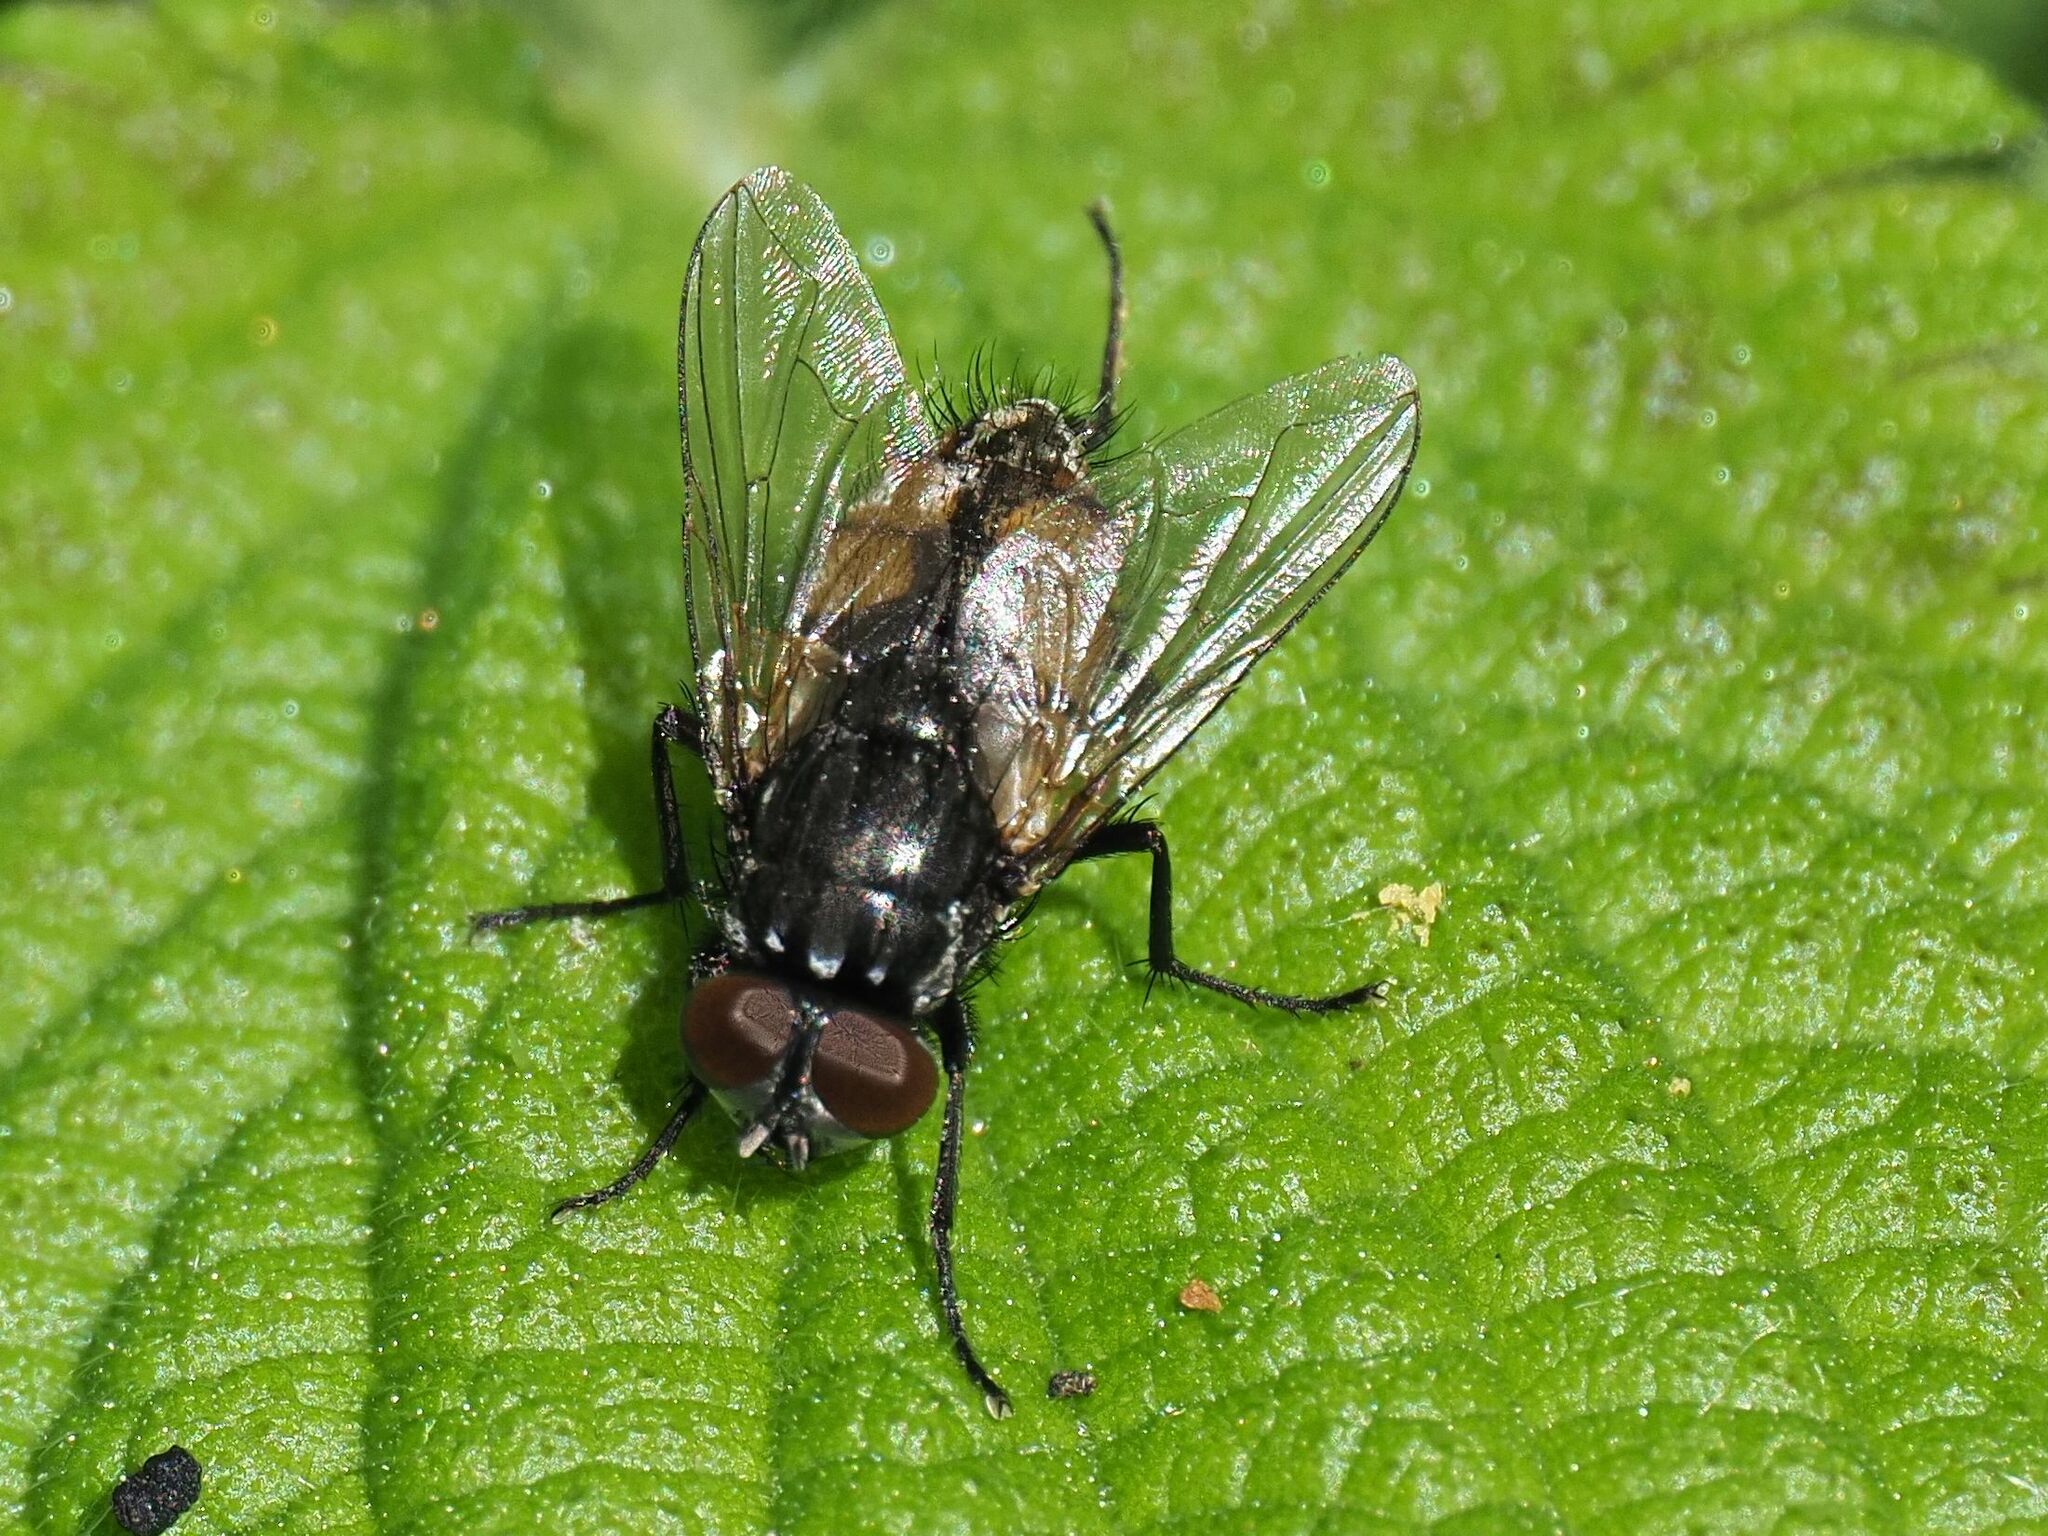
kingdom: Animalia
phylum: Arthropoda
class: Insecta
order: Diptera
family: Muscidae
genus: Musca
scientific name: Musca autumnalis
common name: Face fly
